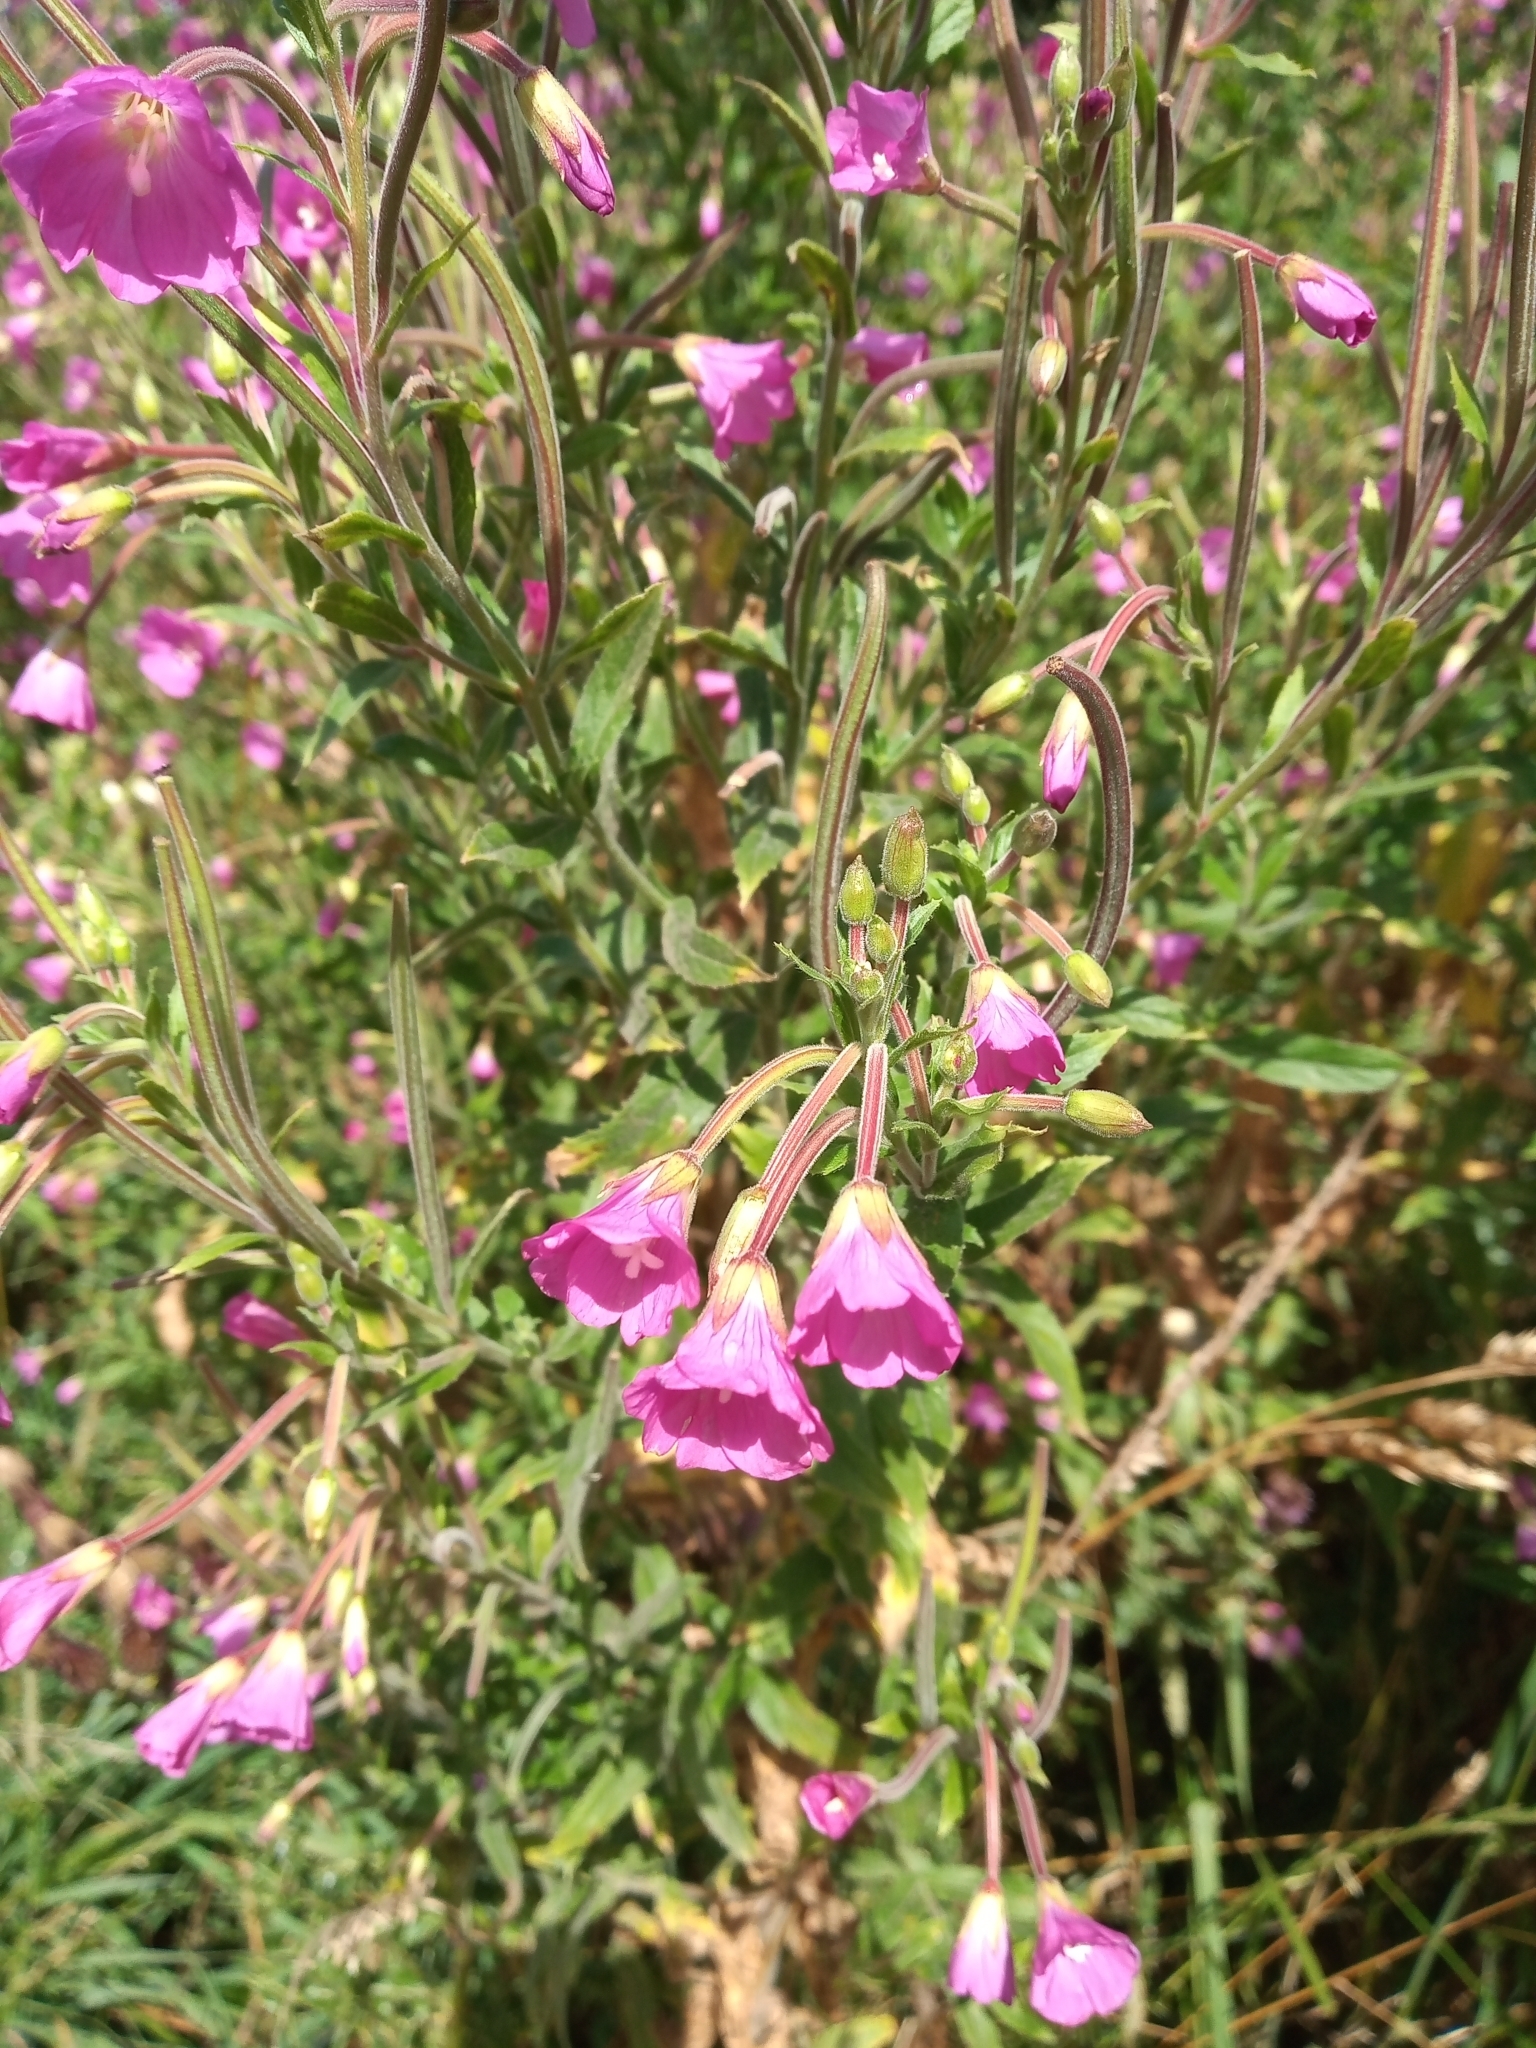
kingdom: Plantae
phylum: Tracheophyta
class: Magnoliopsida
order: Myrtales
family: Onagraceae
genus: Epilobium
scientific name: Epilobium hirsutum
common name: Great willowherb
